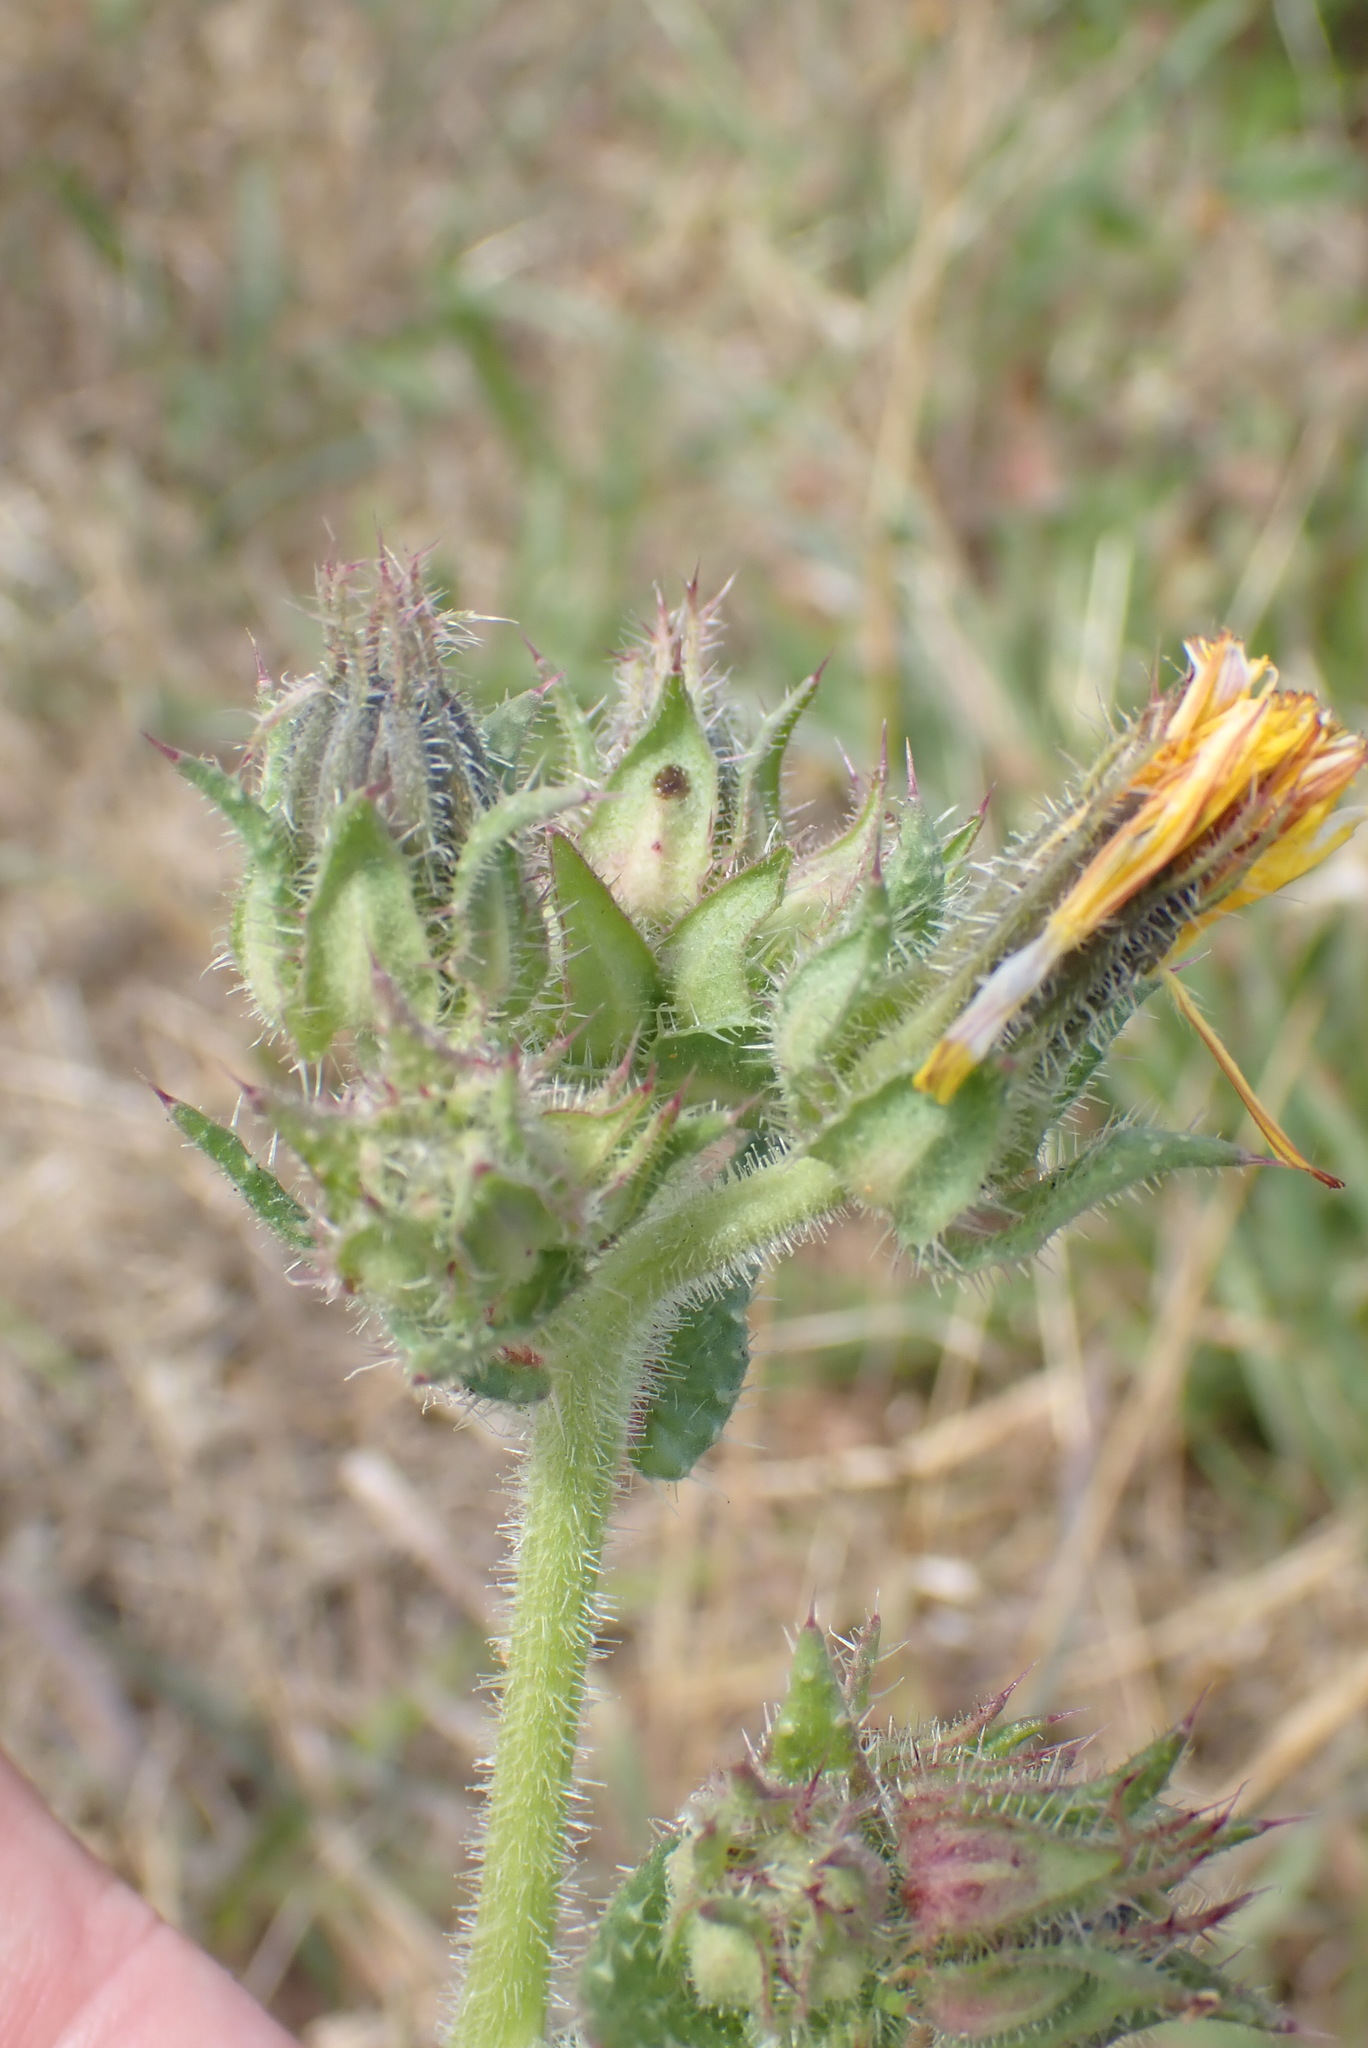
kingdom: Plantae
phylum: Tracheophyta
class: Magnoliopsida
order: Asterales
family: Asteraceae
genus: Helminthotheca
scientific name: Helminthotheca echioides
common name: Ox-tongue
